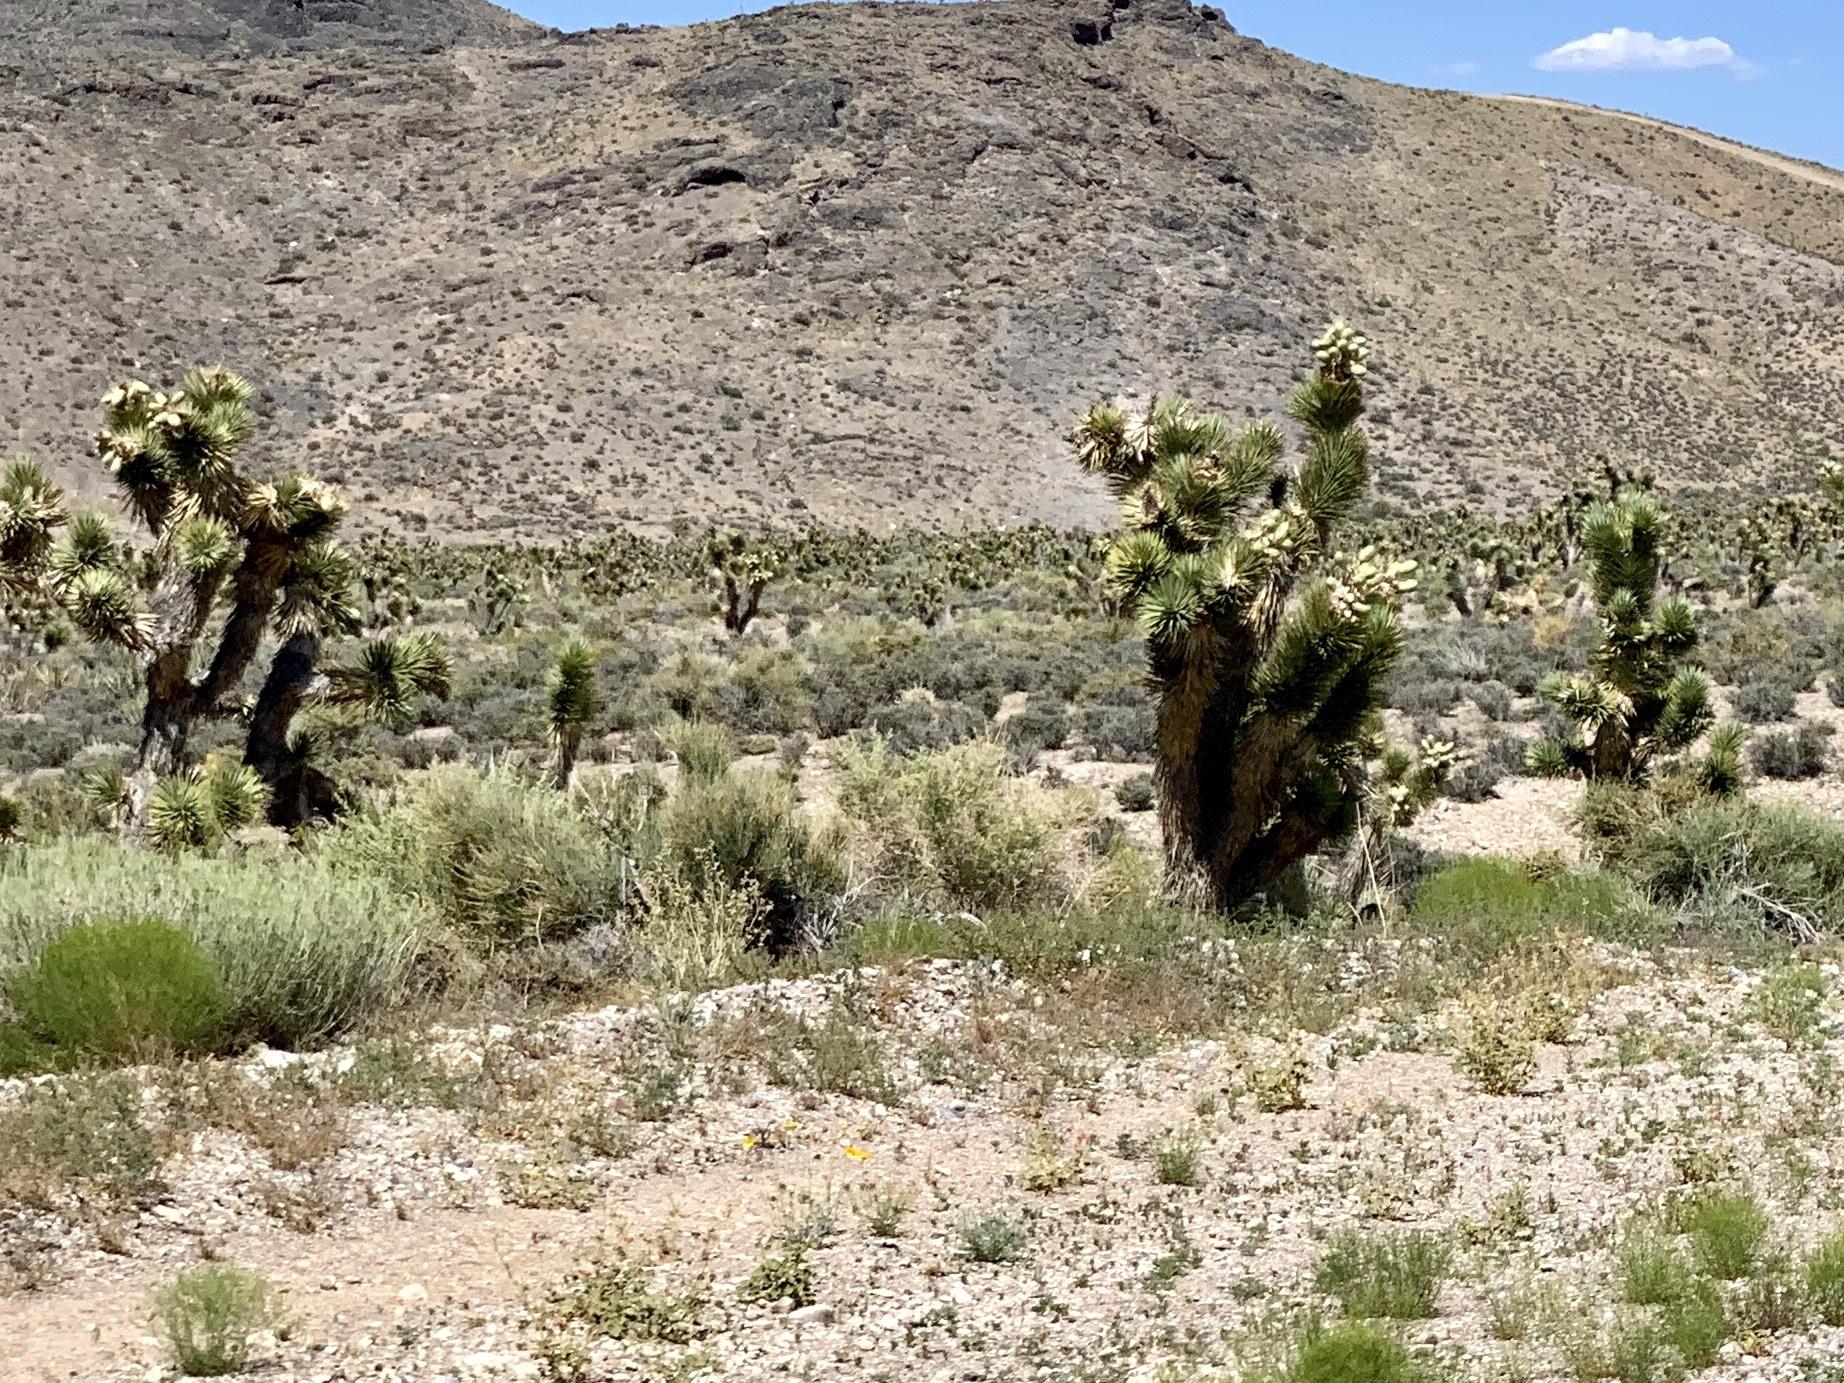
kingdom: Plantae
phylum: Tracheophyta
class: Liliopsida
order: Asparagales
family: Asparagaceae
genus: Yucca
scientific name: Yucca brevifolia
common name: Joshua tree
